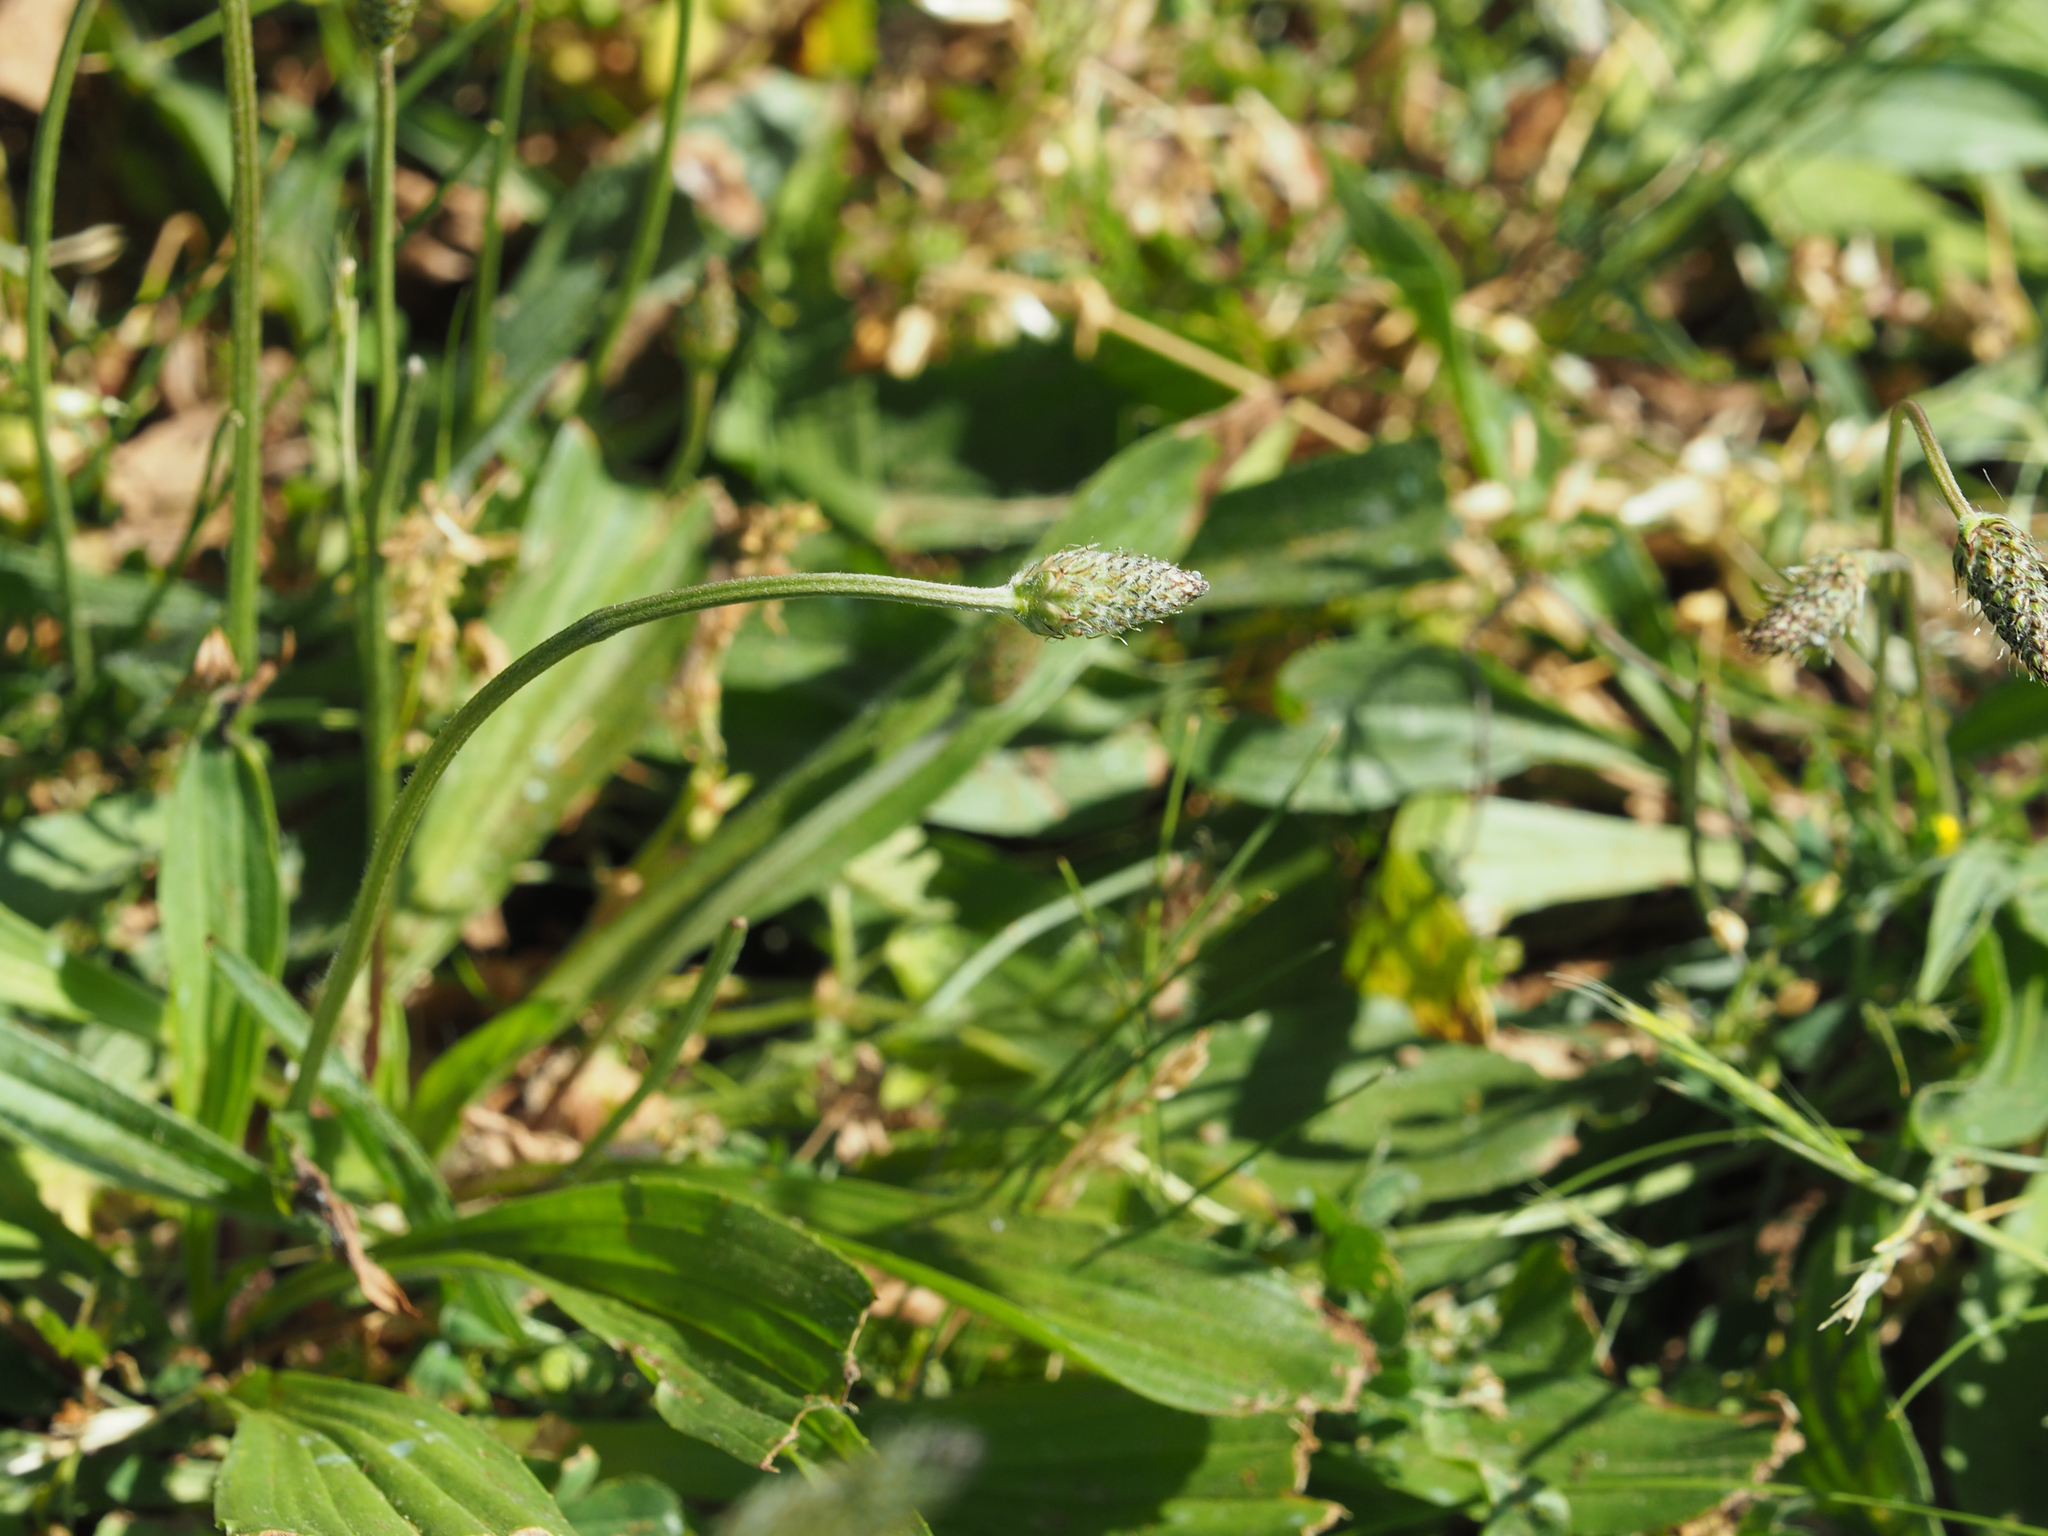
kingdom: Plantae
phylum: Tracheophyta
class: Magnoliopsida
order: Lamiales
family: Plantaginaceae
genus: Plantago
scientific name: Plantago lanceolata
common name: Ribwort plantain
